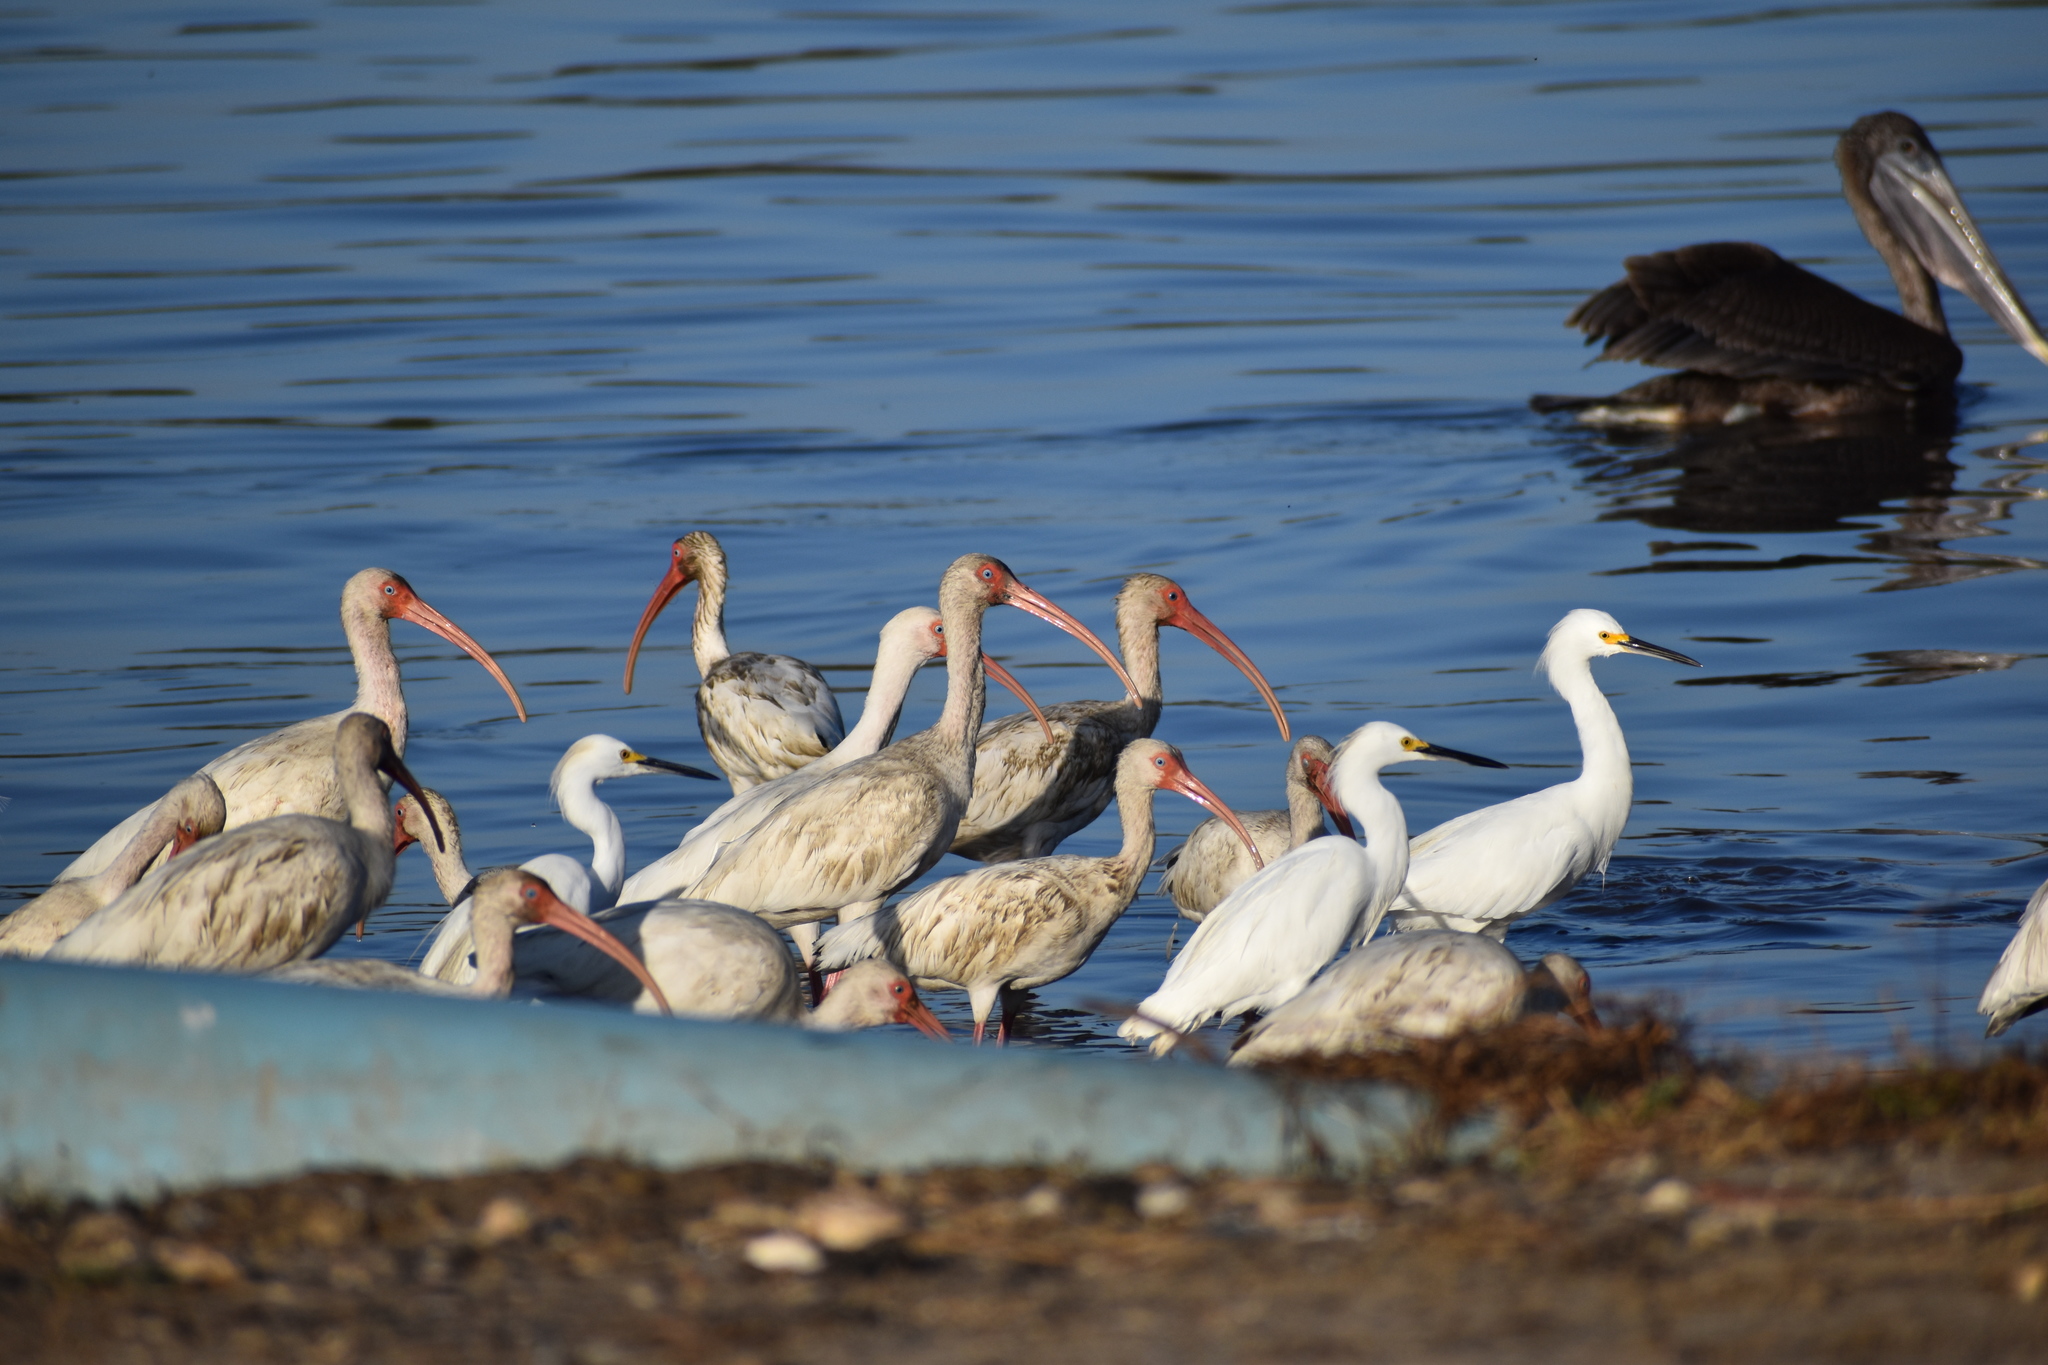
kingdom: Animalia
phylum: Chordata
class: Aves
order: Pelecaniformes
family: Threskiornithidae
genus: Eudocimus
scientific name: Eudocimus albus
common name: White ibis
